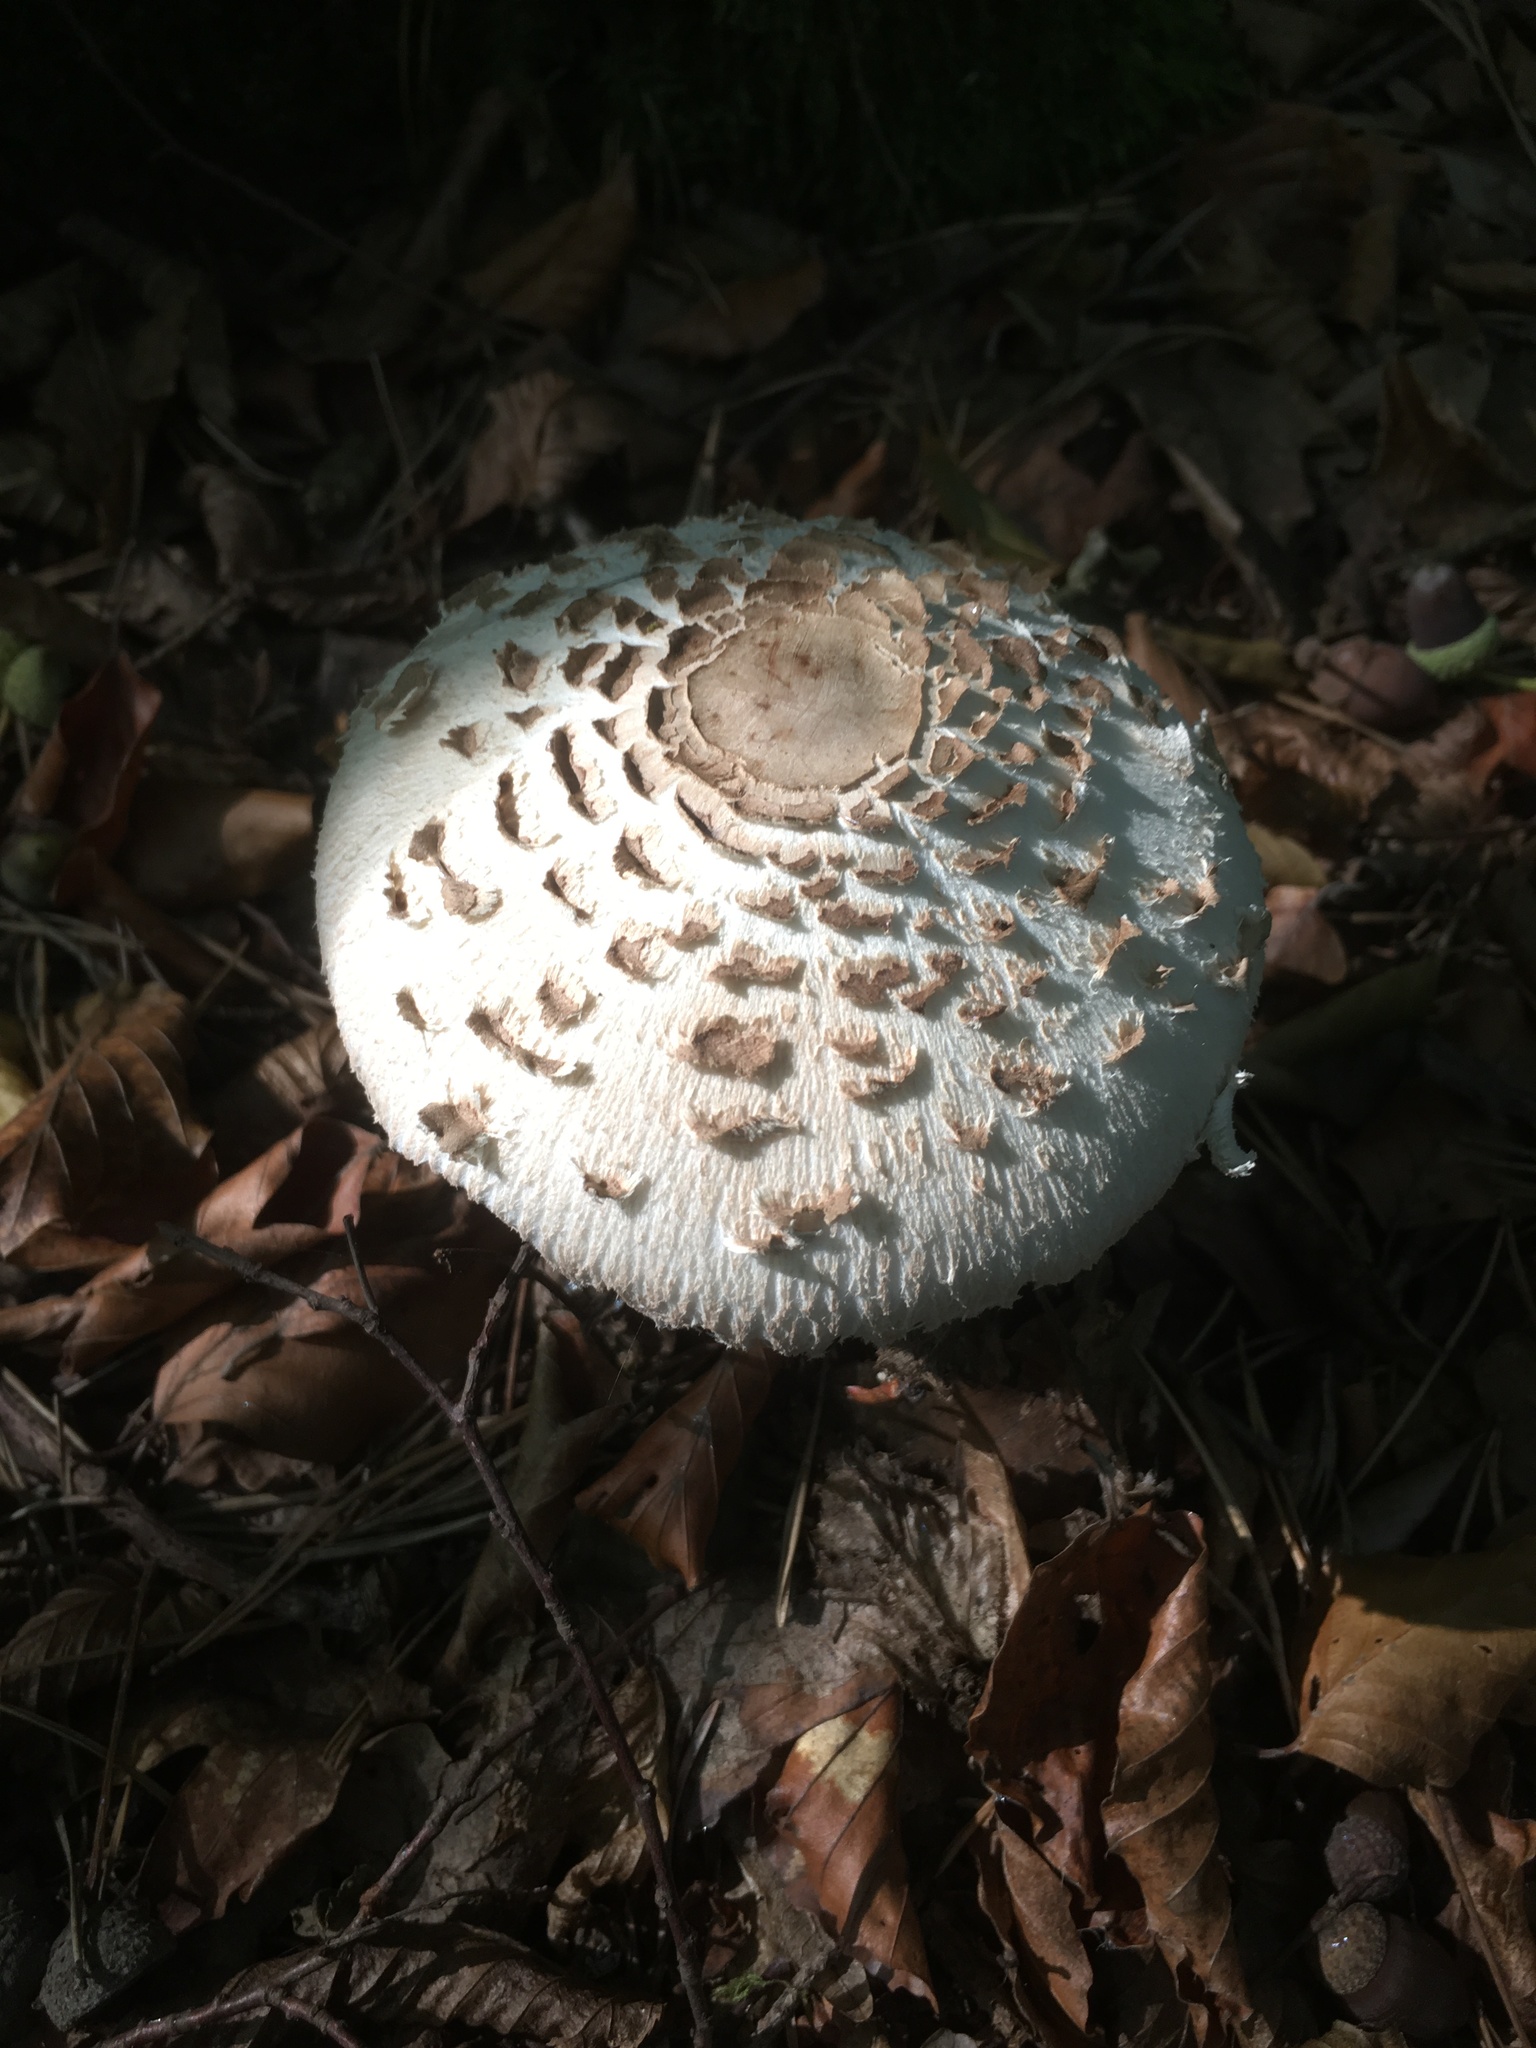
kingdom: Fungi
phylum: Basidiomycota
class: Agaricomycetes
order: Agaricales
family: Agaricaceae
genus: Macrolepiota
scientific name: Macrolepiota procera
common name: Parasol
